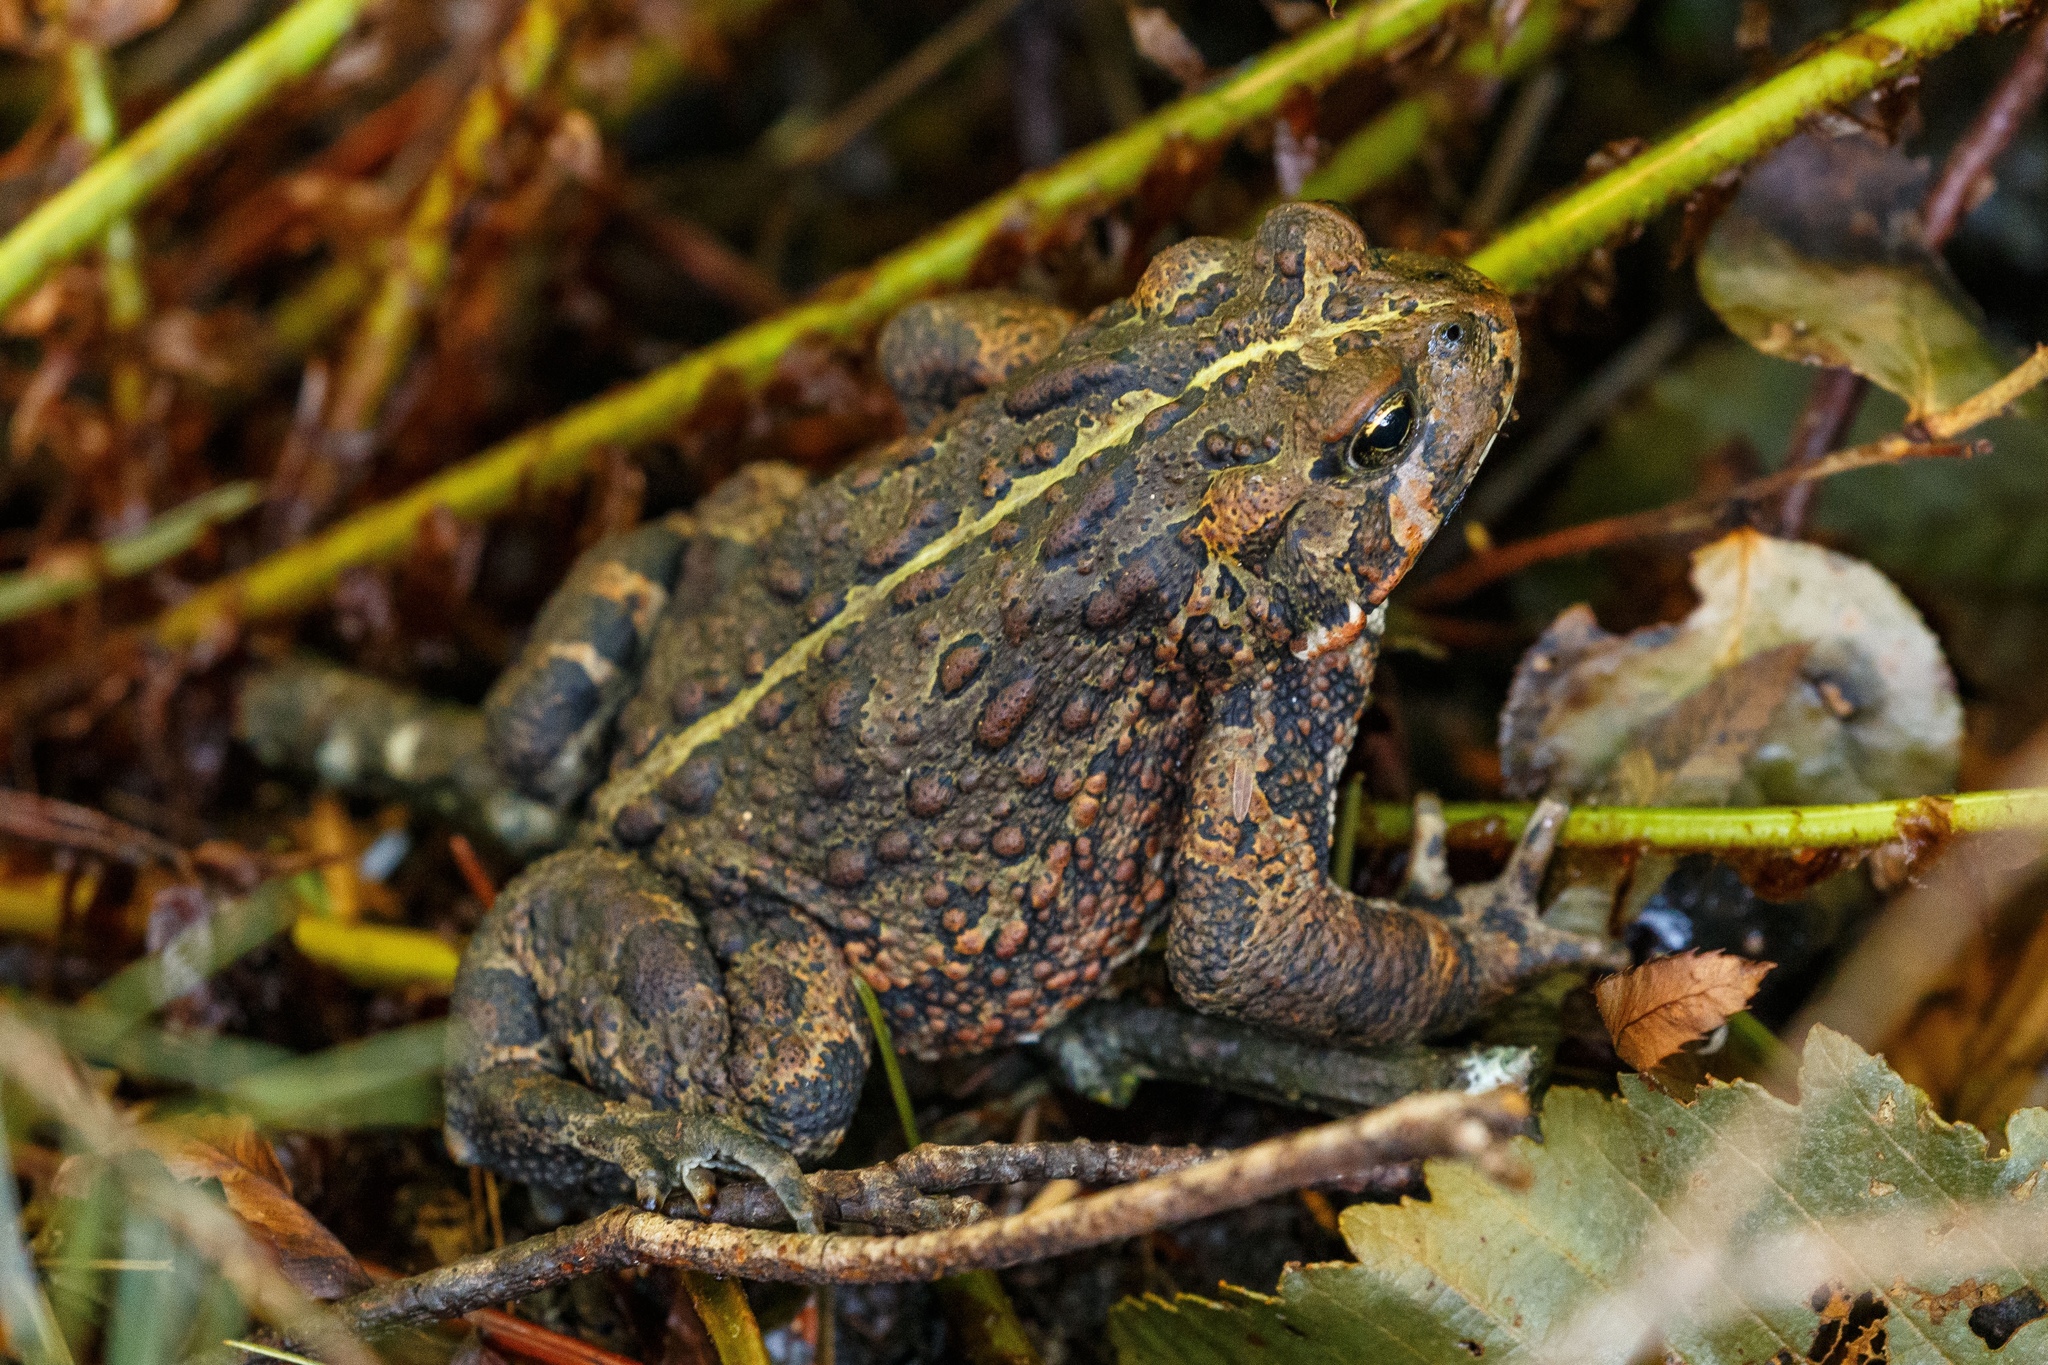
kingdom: Animalia
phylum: Chordata
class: Amphibia
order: Anura
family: Bufonidae
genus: Anaxyrus
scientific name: Anaxyrus boreas
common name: Western toad
